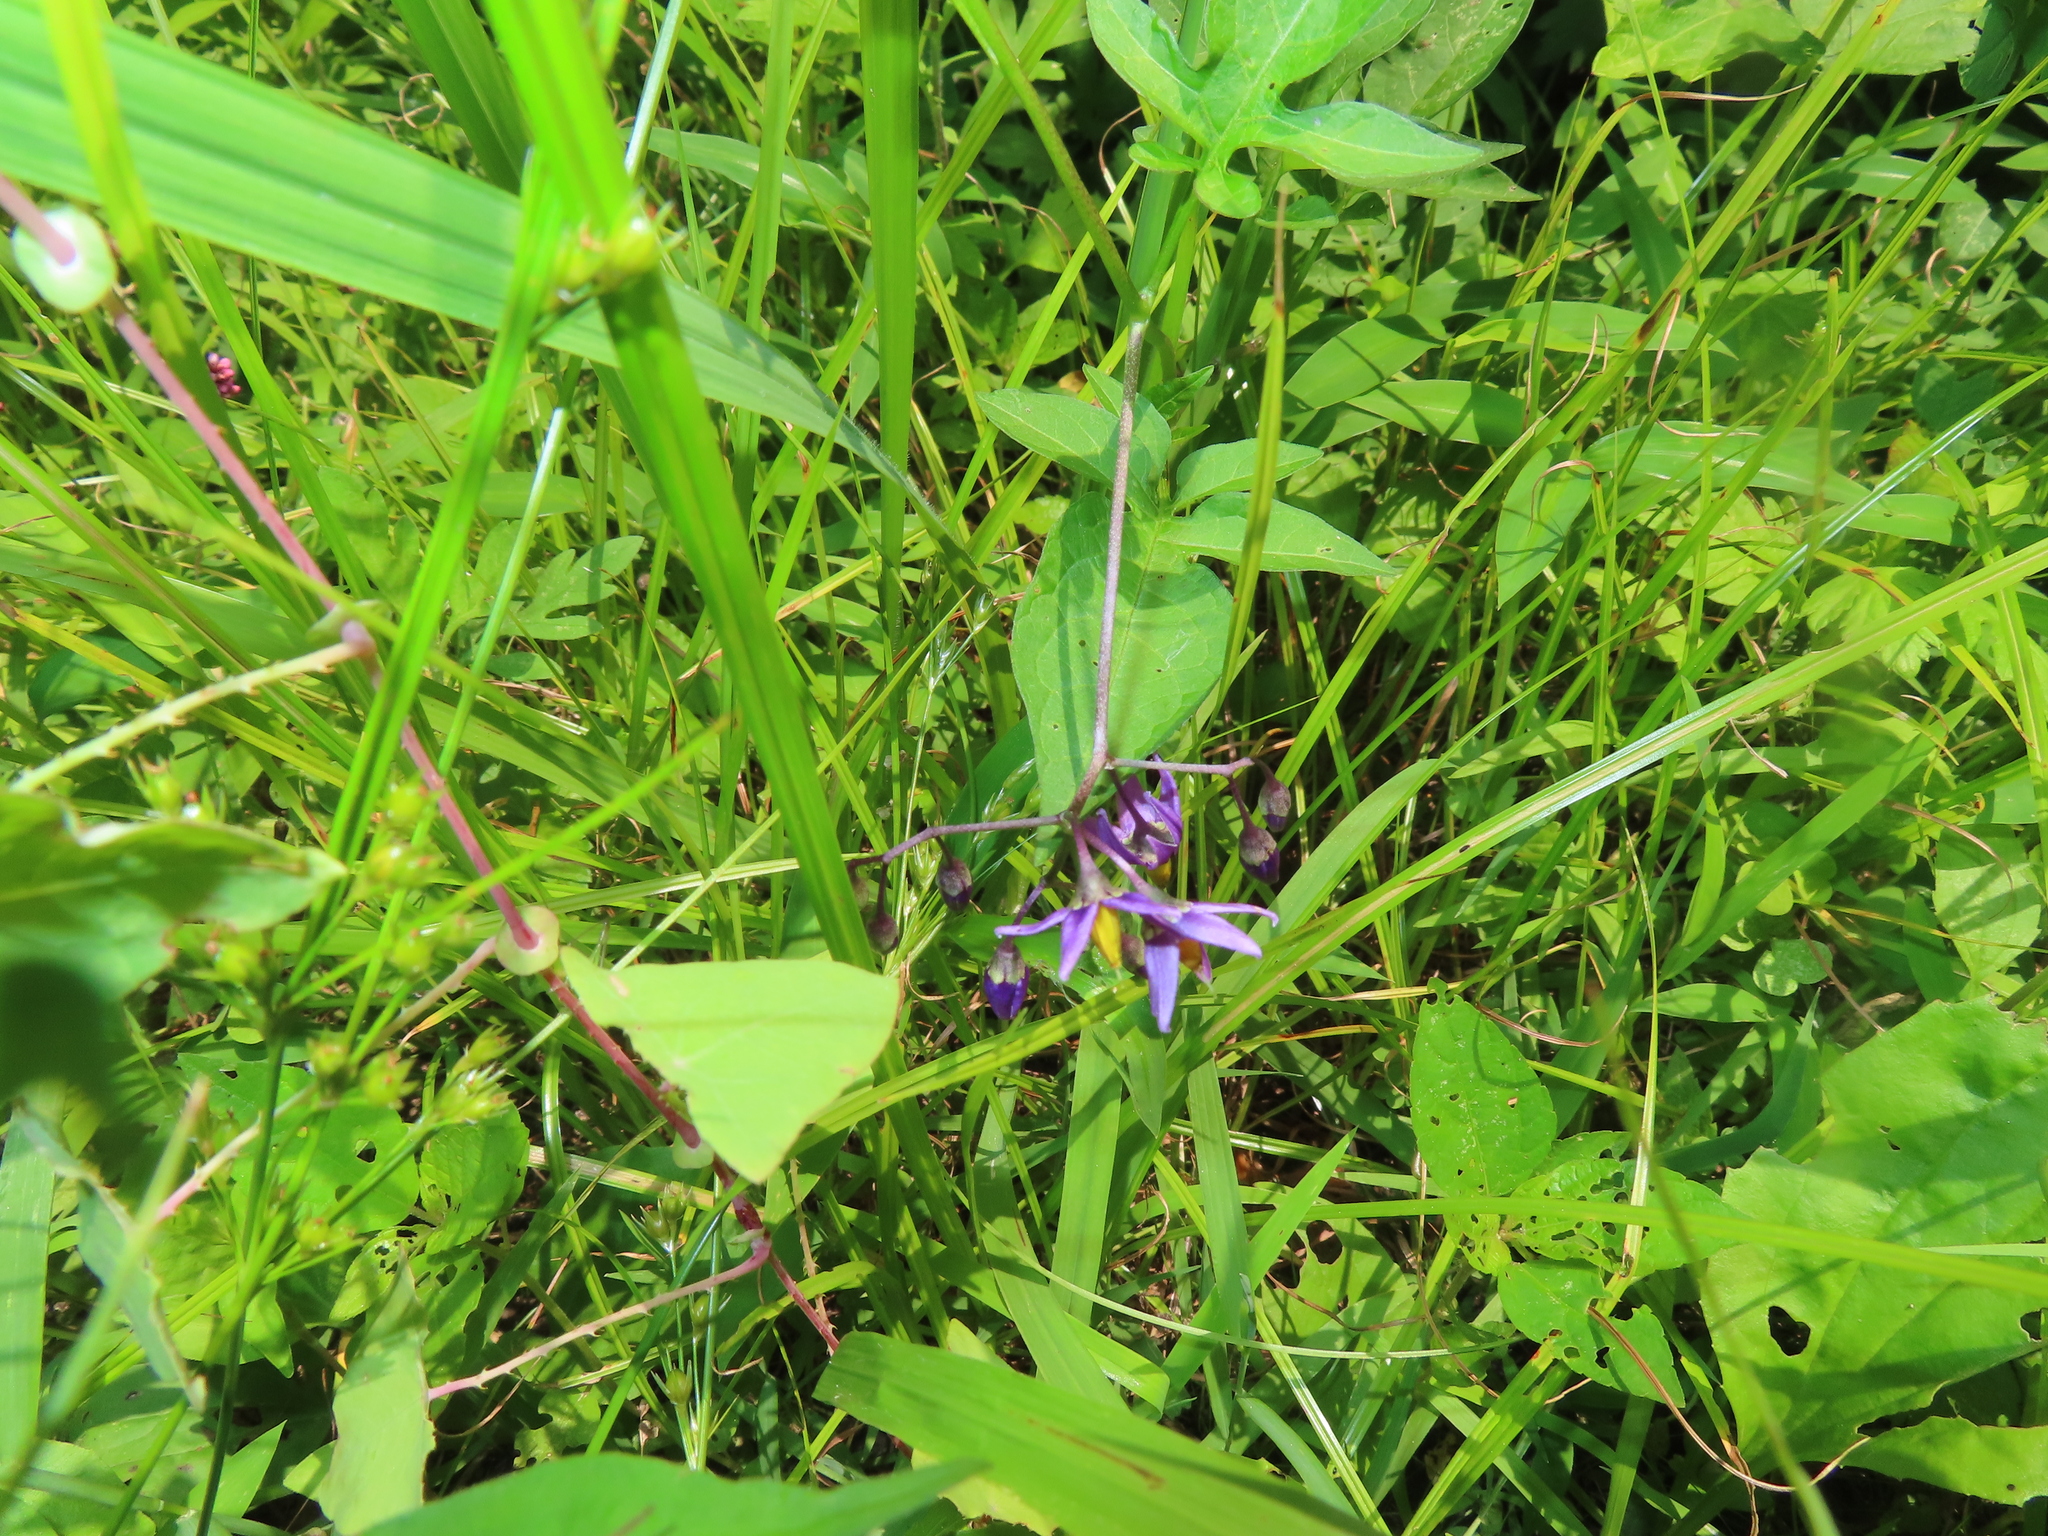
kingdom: Plantae
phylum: Tracheophyta
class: Magnoliopsida
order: Solanales
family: Solanaceae
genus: Solanum
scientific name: Solanum dulcamara
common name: Climbing nightshade
